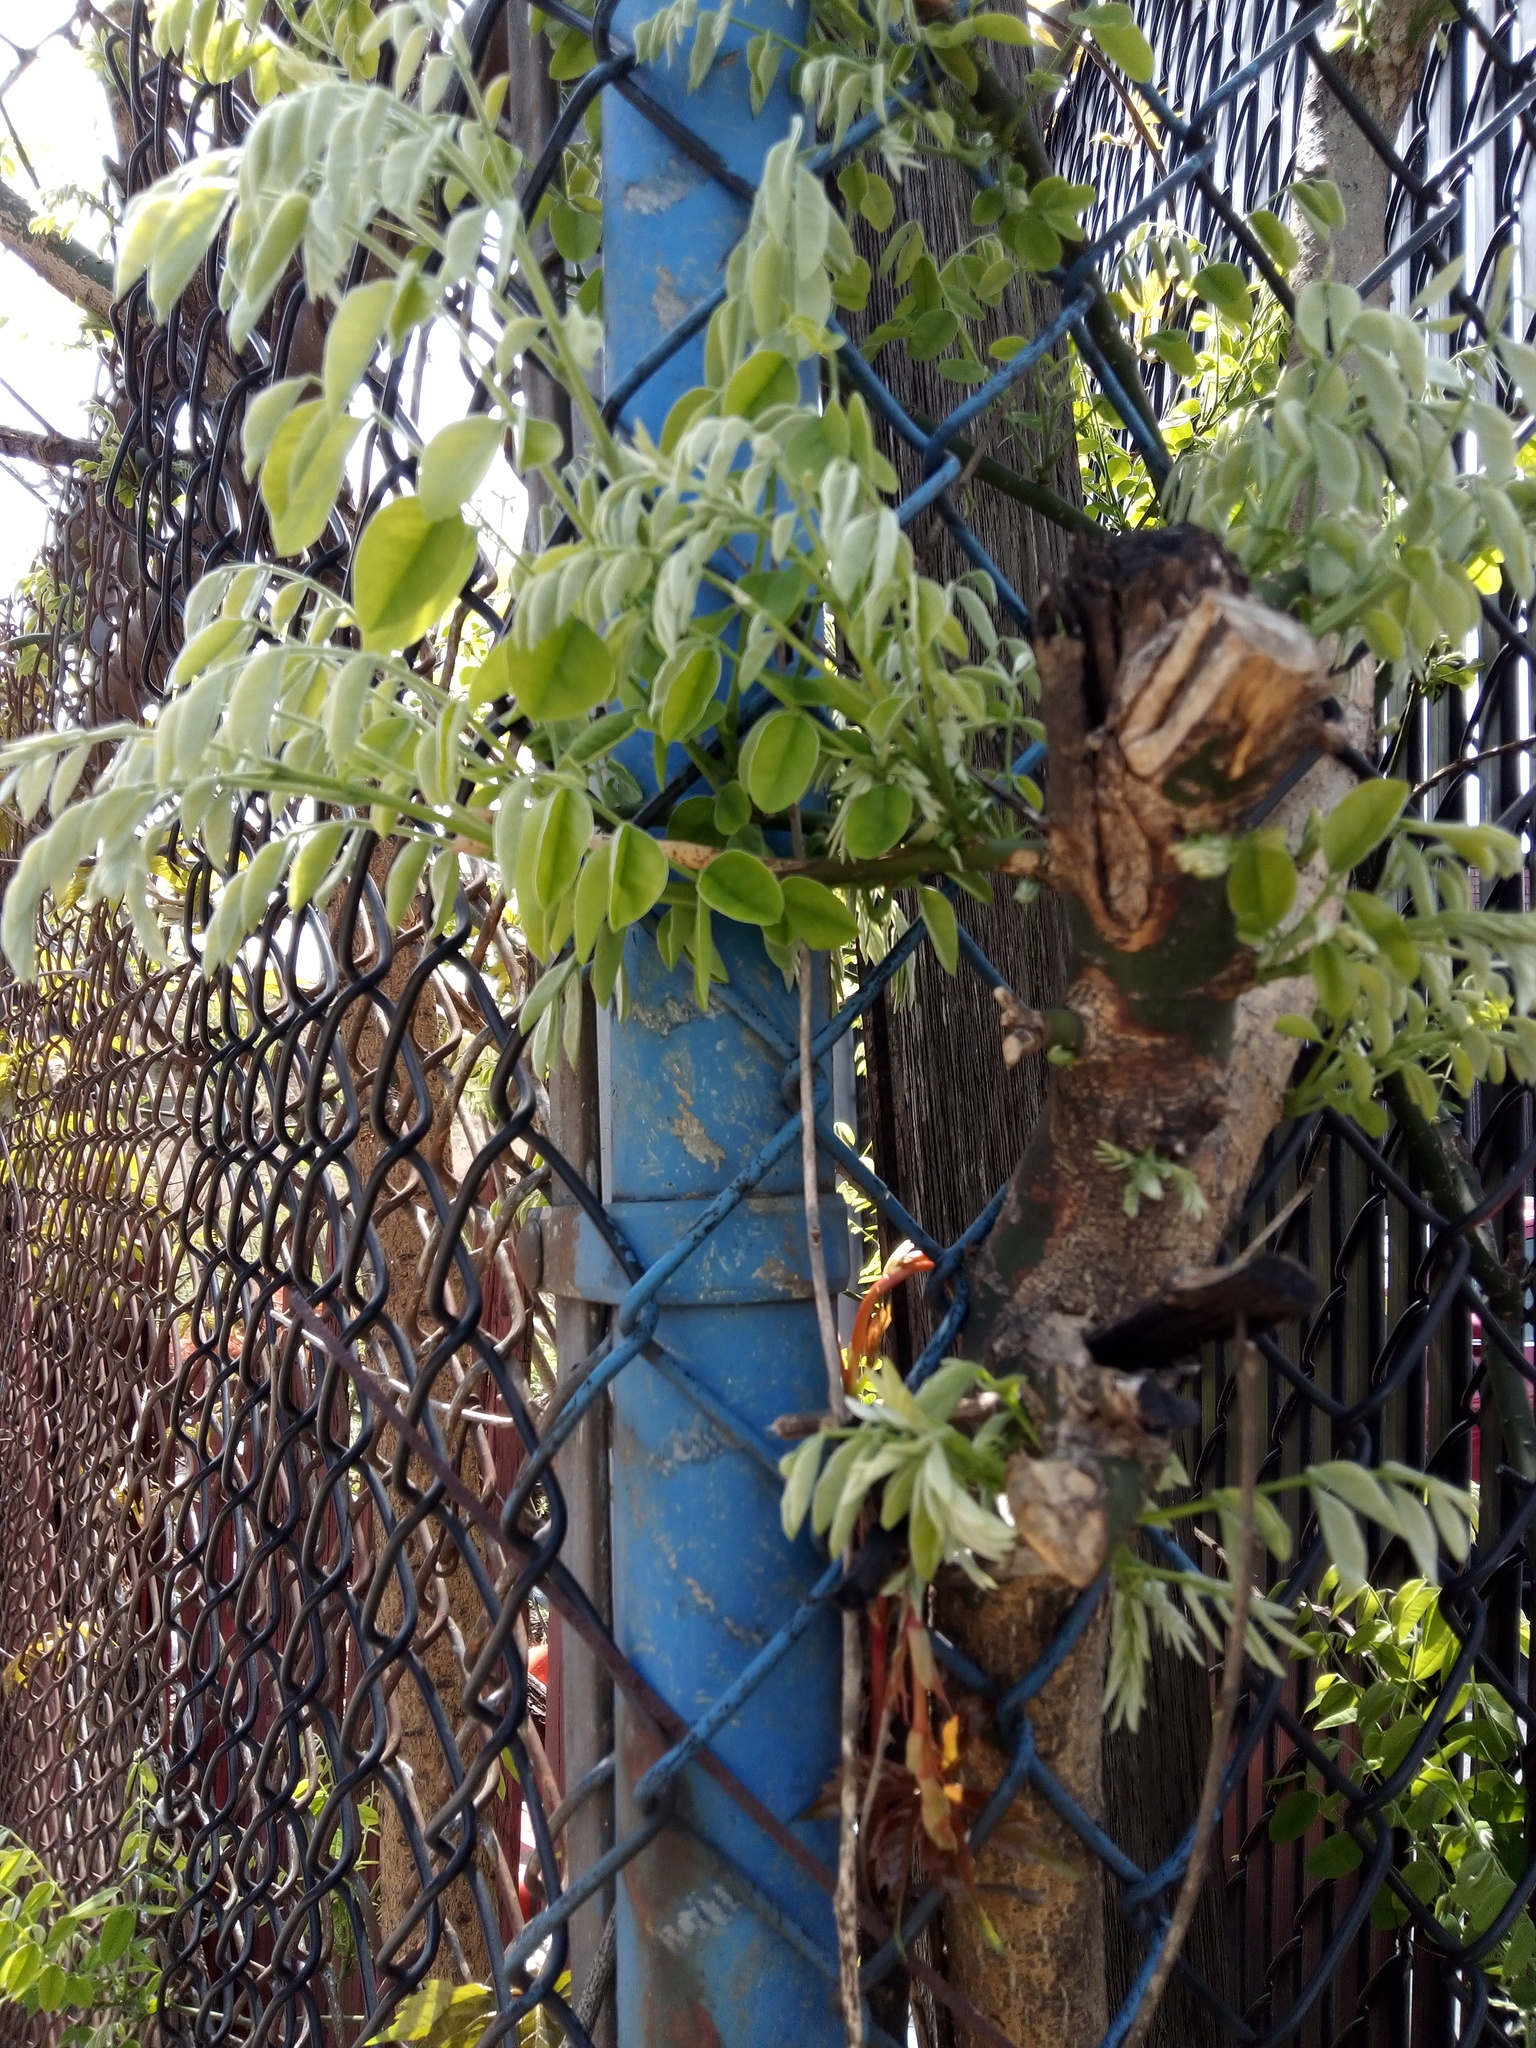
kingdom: Plantae
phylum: Tracheophyta
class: Magnoliopsida
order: Fabales
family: Fabaceae
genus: Styphnolobium
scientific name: Styphnolobium japonicum
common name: Chinese scholartree
